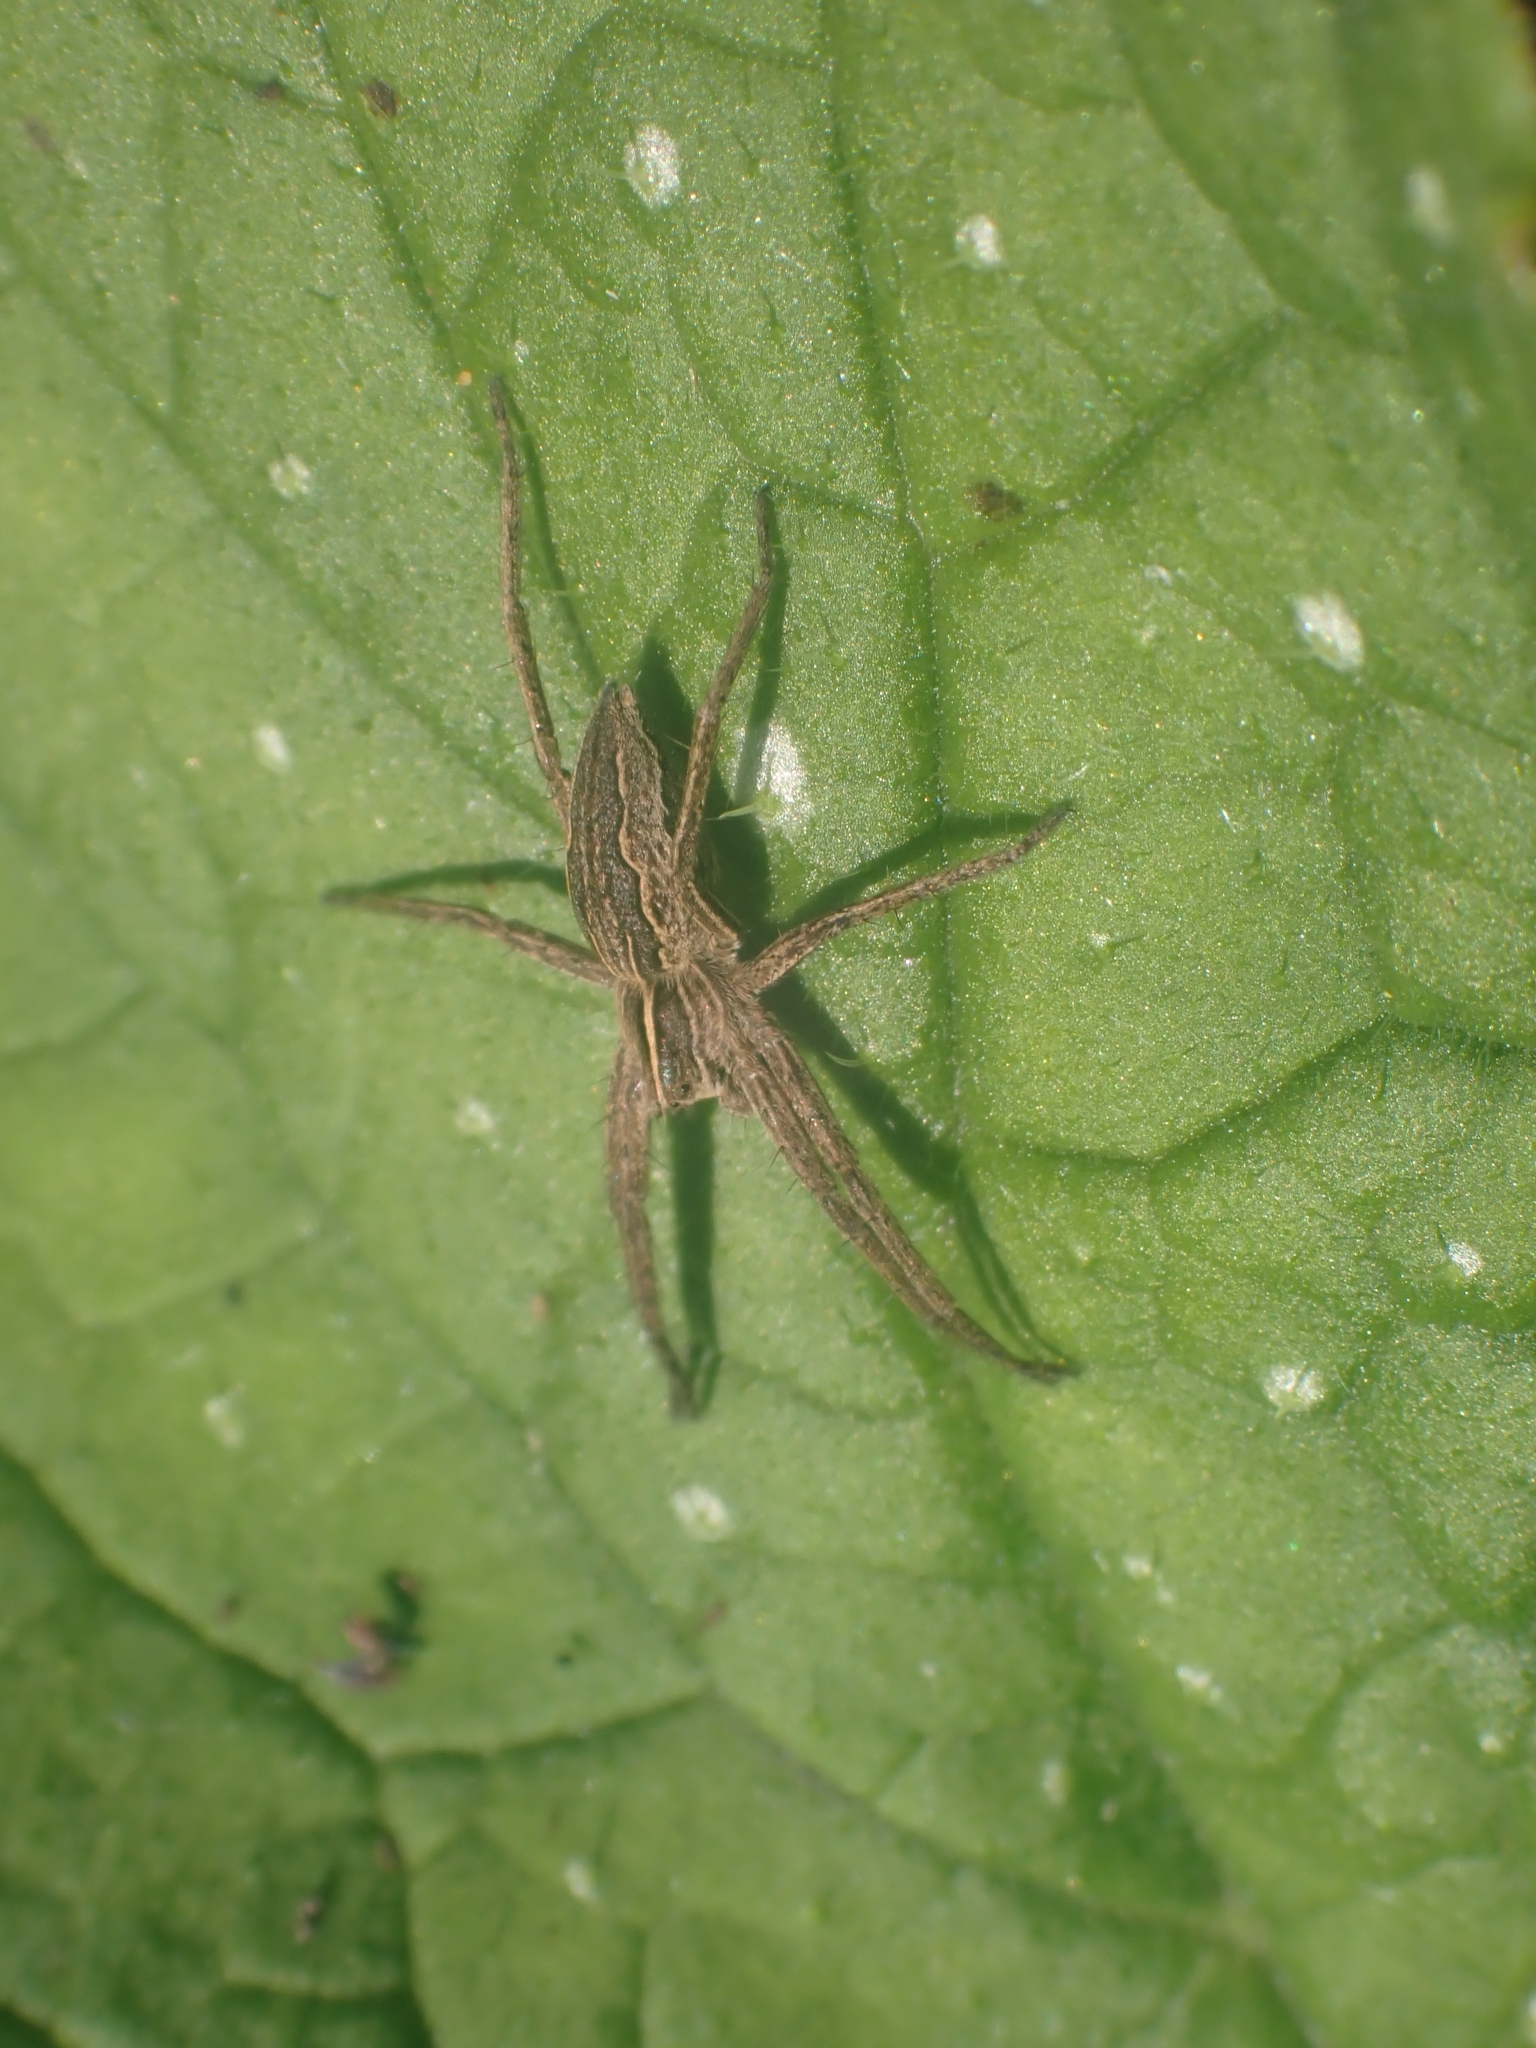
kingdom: Animalia
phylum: Arthropoda
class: Arachnida
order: Araneae
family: Pisauridae
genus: Pisaura
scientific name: Pisaura mirabilis
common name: Tent spider
